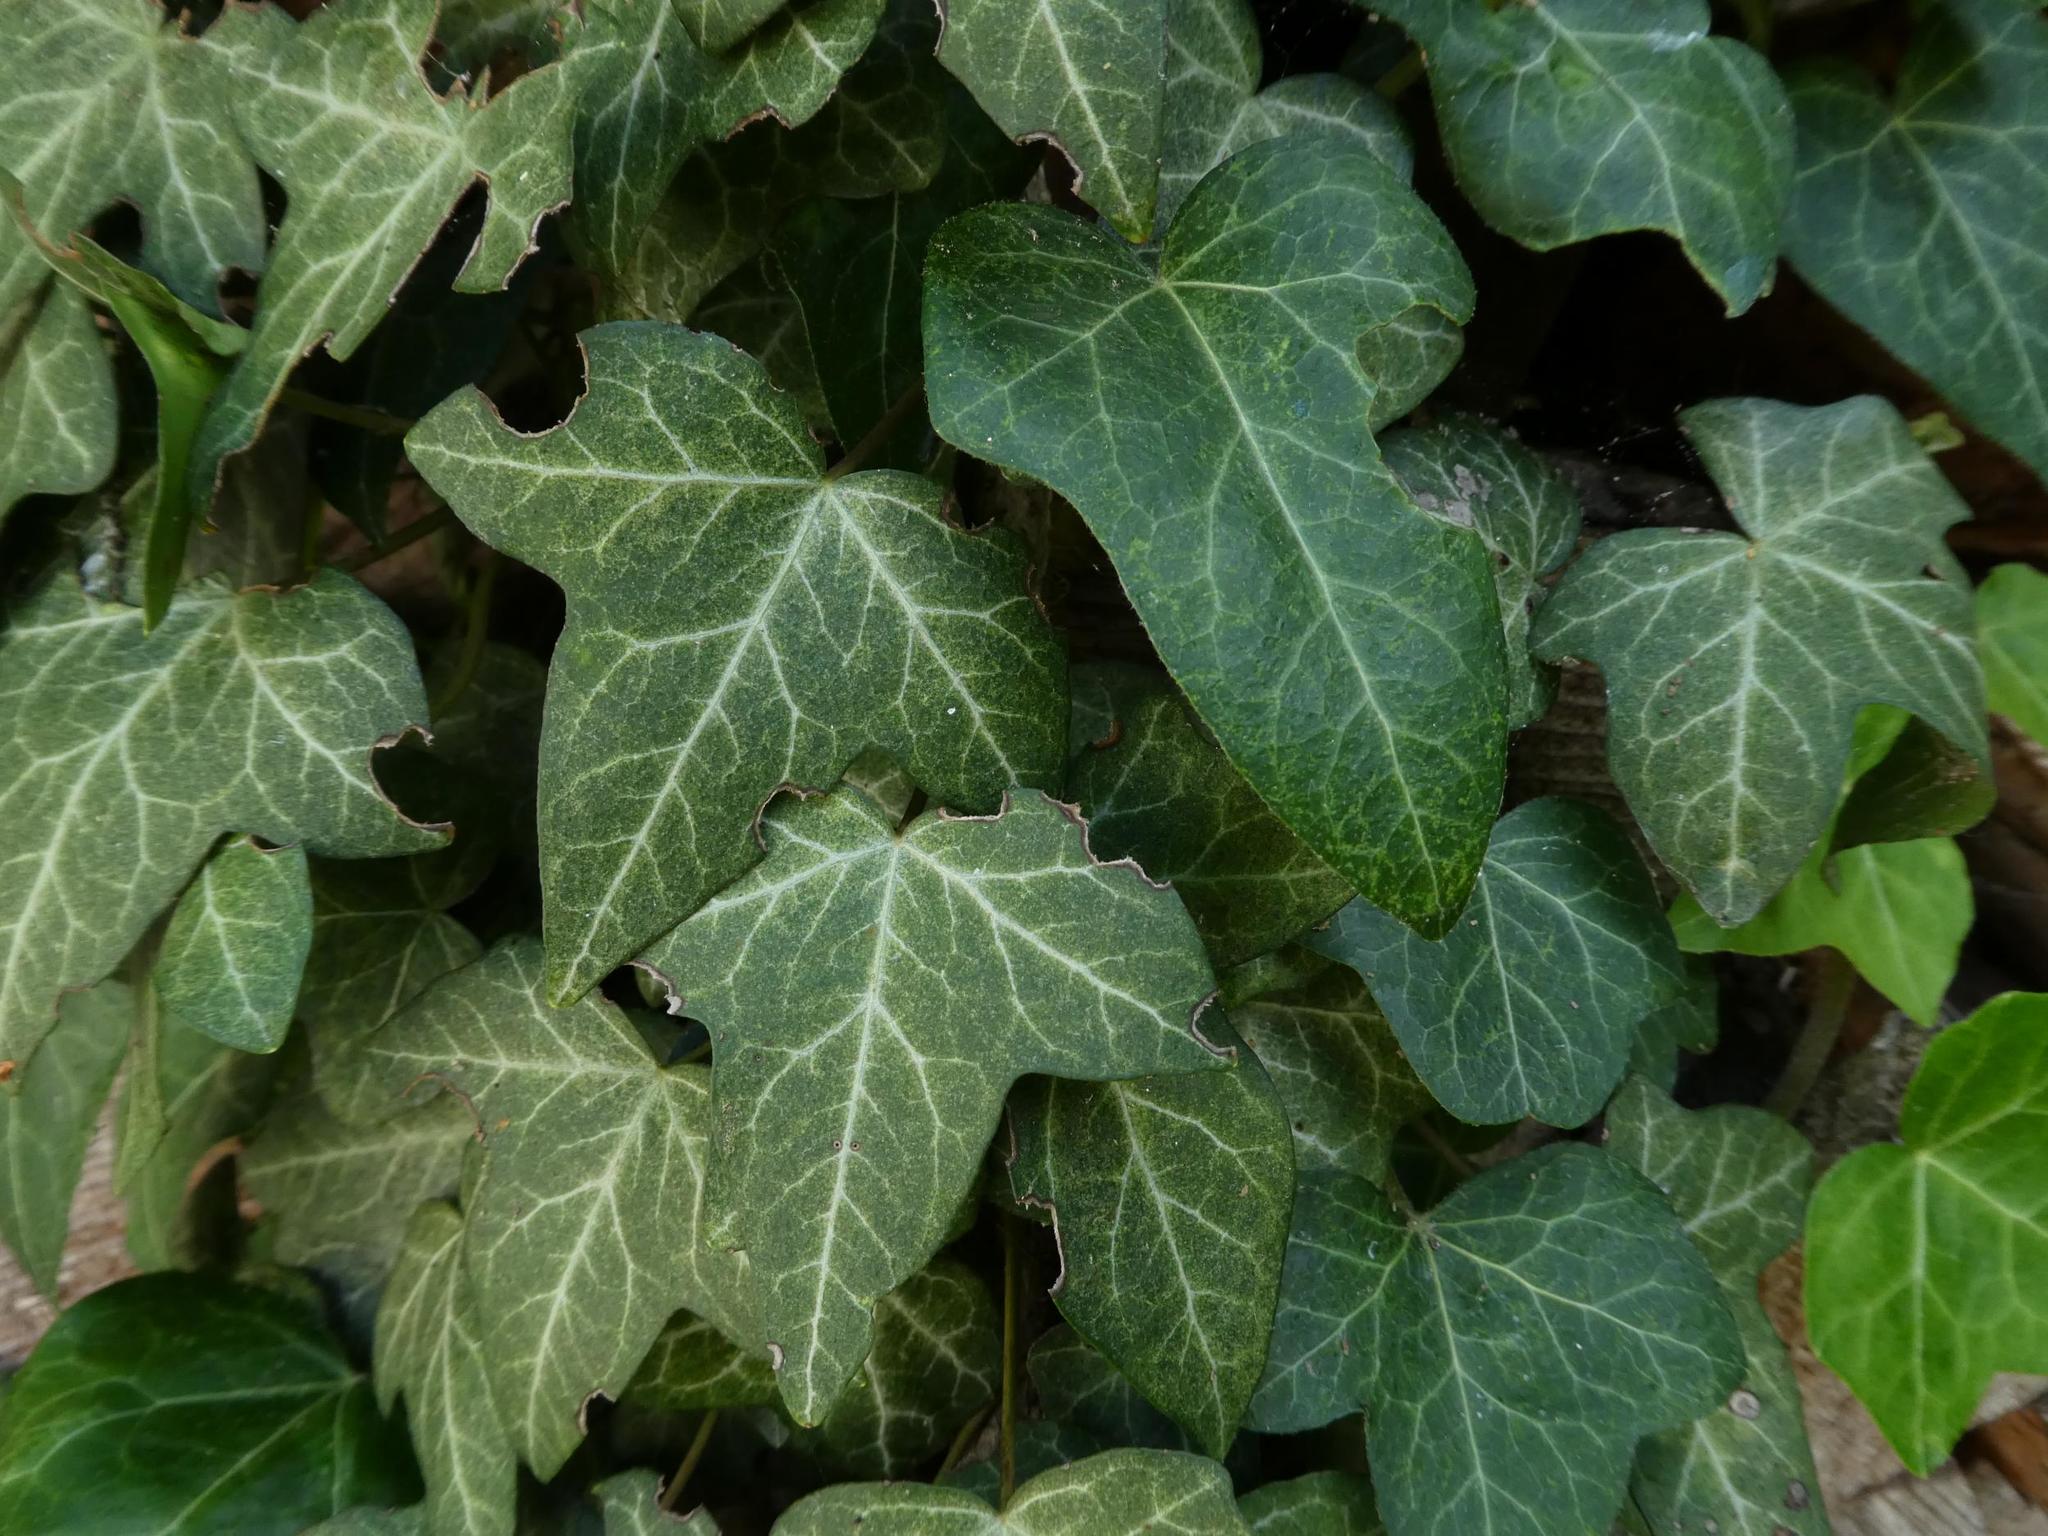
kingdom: Plantae
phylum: Tracheophyta
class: Magnoliopsida
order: Apiales
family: Araliaceae
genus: Hedera
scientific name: Hedera helix
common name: Ivy
